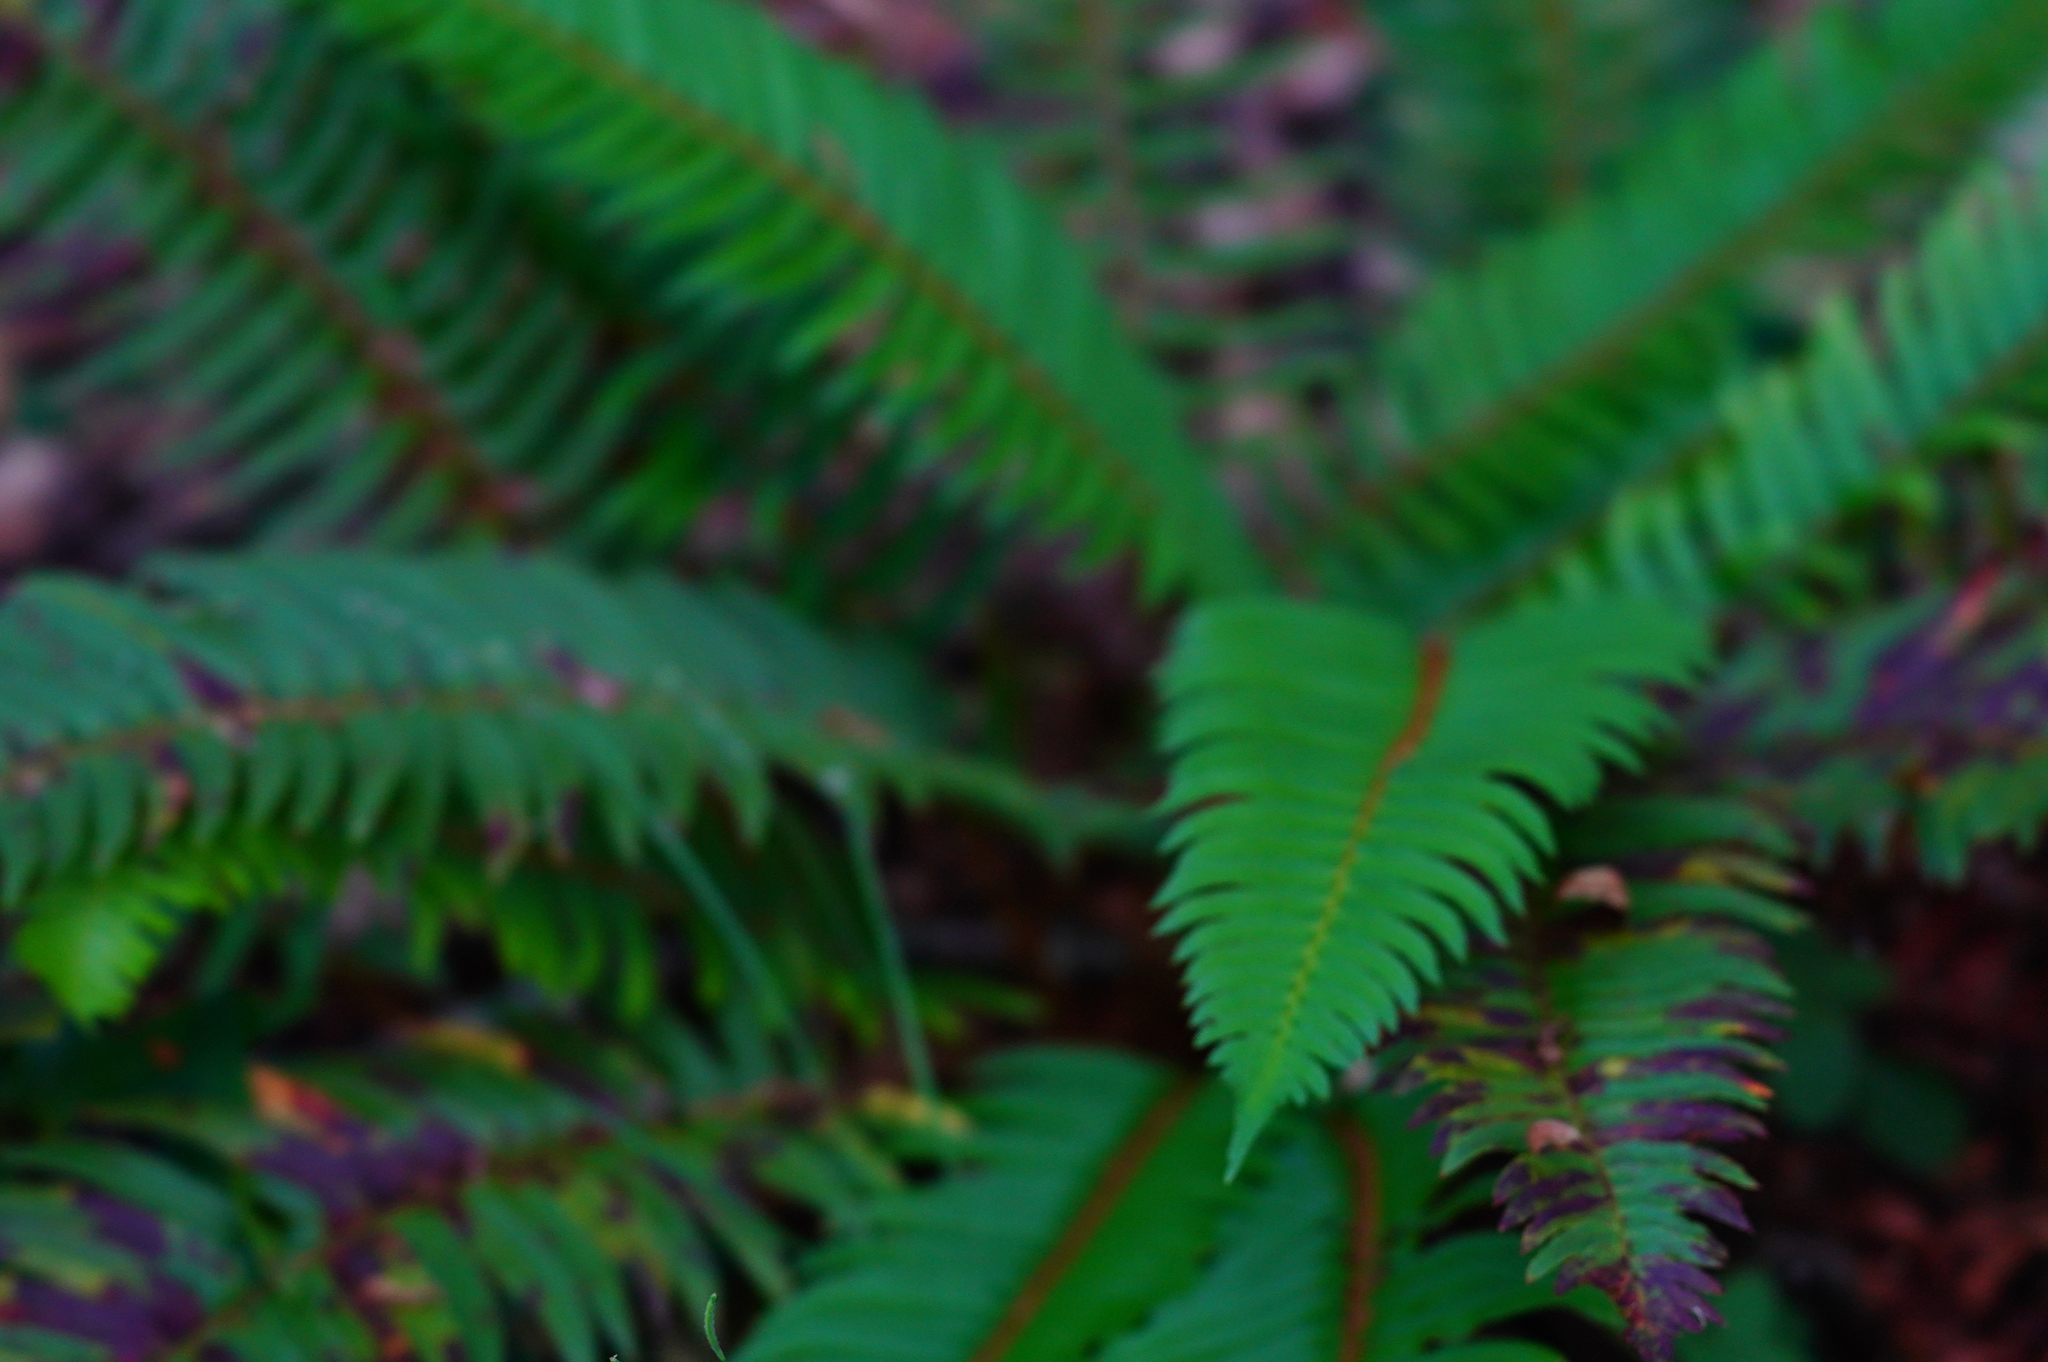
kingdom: Plantae
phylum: Tracheophyta
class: Polypodiopsida
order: Polypodiales
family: Dryopteridaceae
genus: Polystichum
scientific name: Polystichum munitum
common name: Western sword-fern
